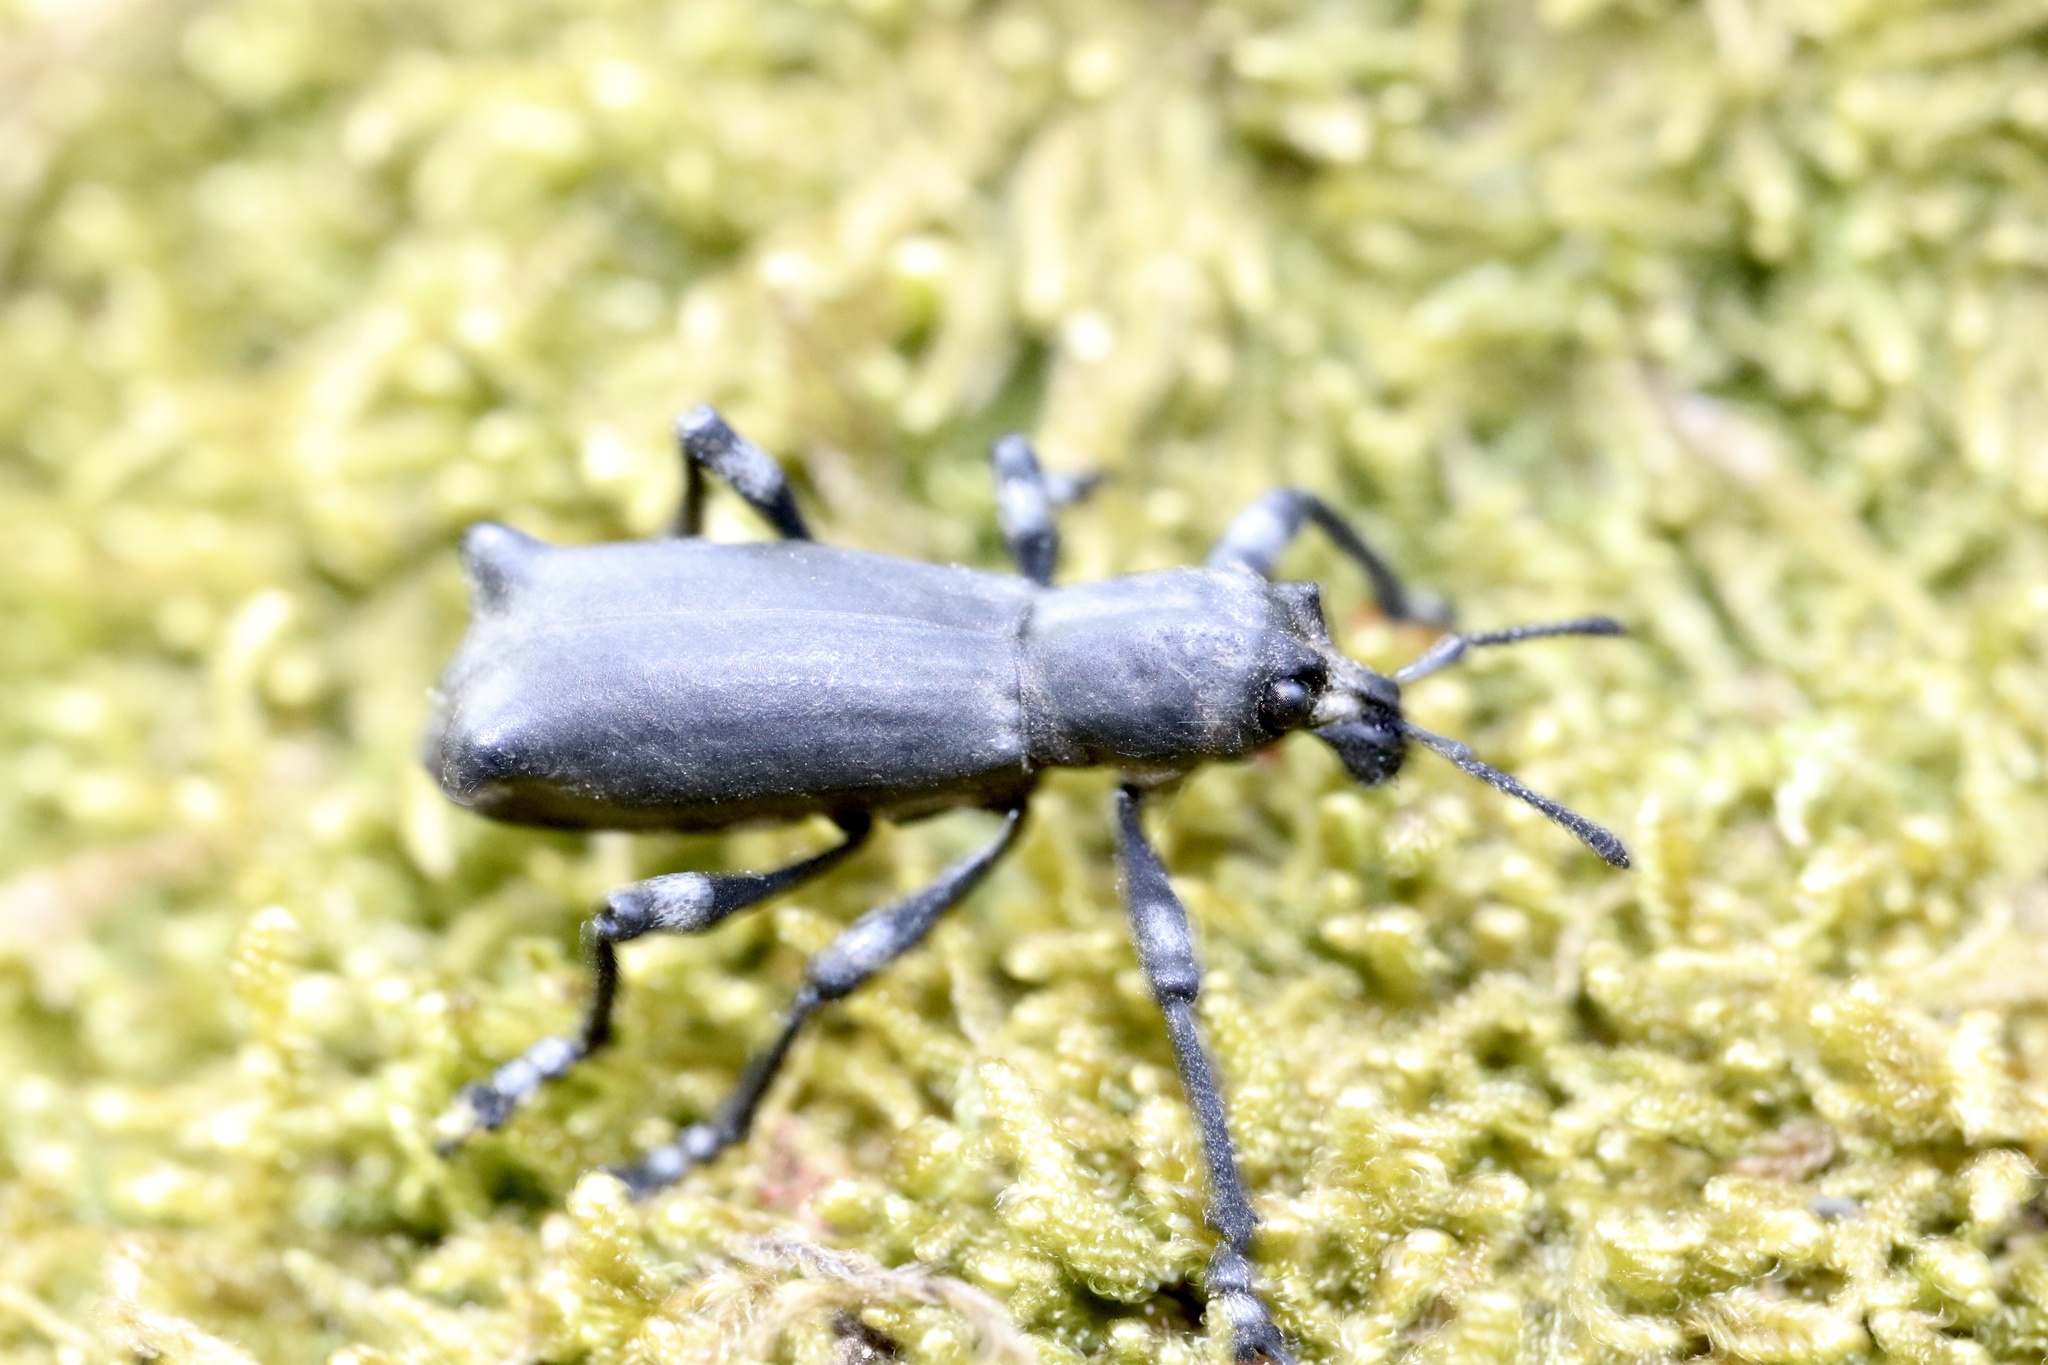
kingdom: Animalia
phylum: Arthropoda
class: Insecta
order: Coleoptera
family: Curculionidae
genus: Aegorhinus
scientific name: Aegorhinus
